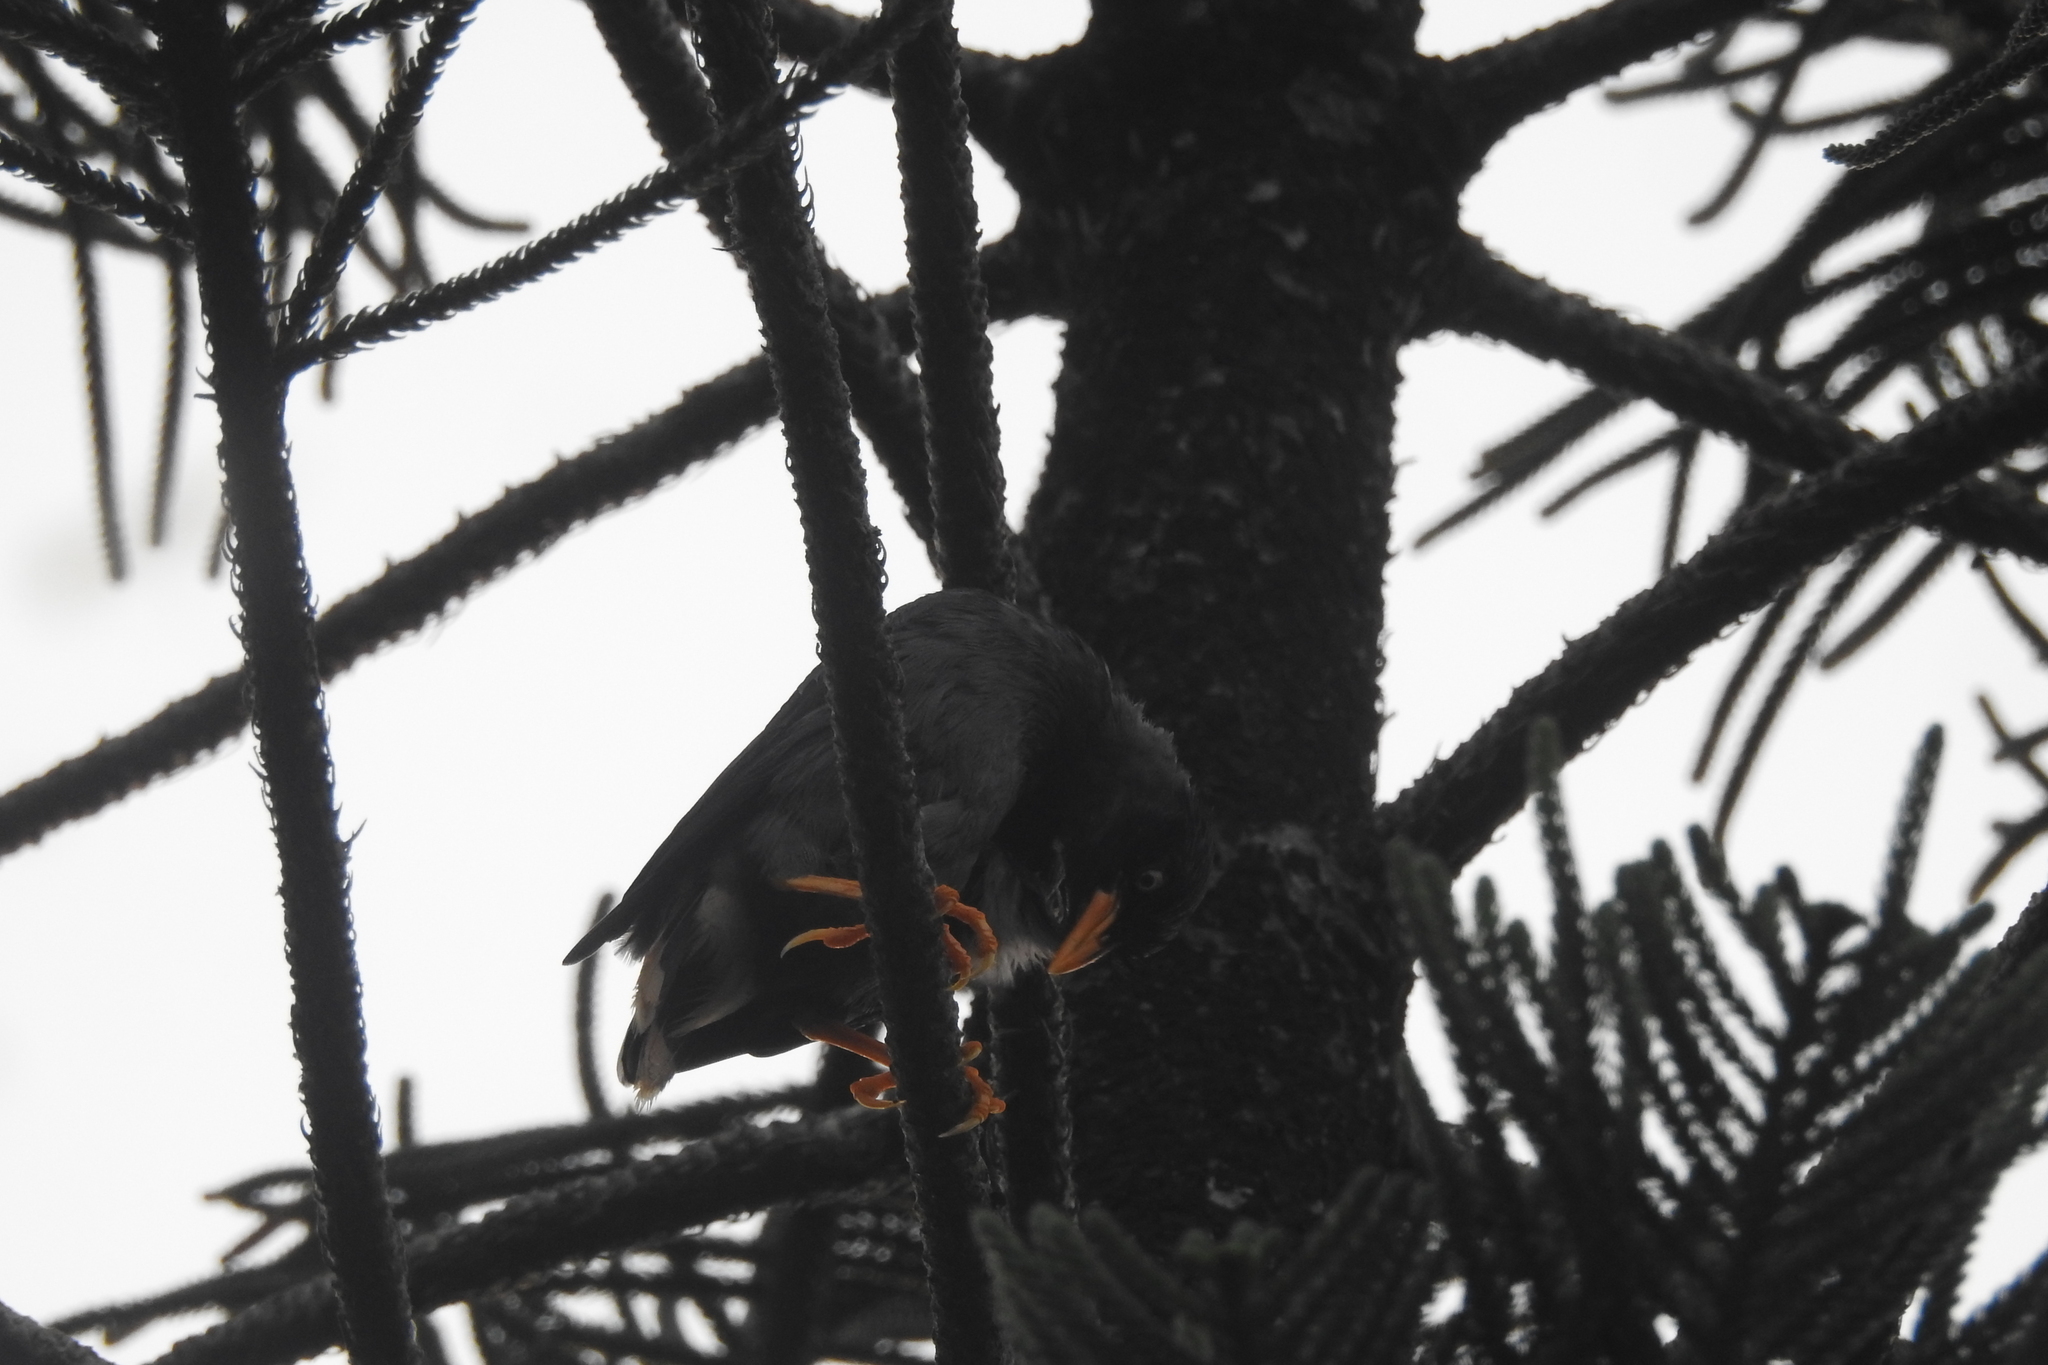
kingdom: Animalia
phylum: Chordata
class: Aves
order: Passeriformes
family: Sturnidae
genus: Acridotheres
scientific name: Acridotheres javanicus
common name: Javan myna
